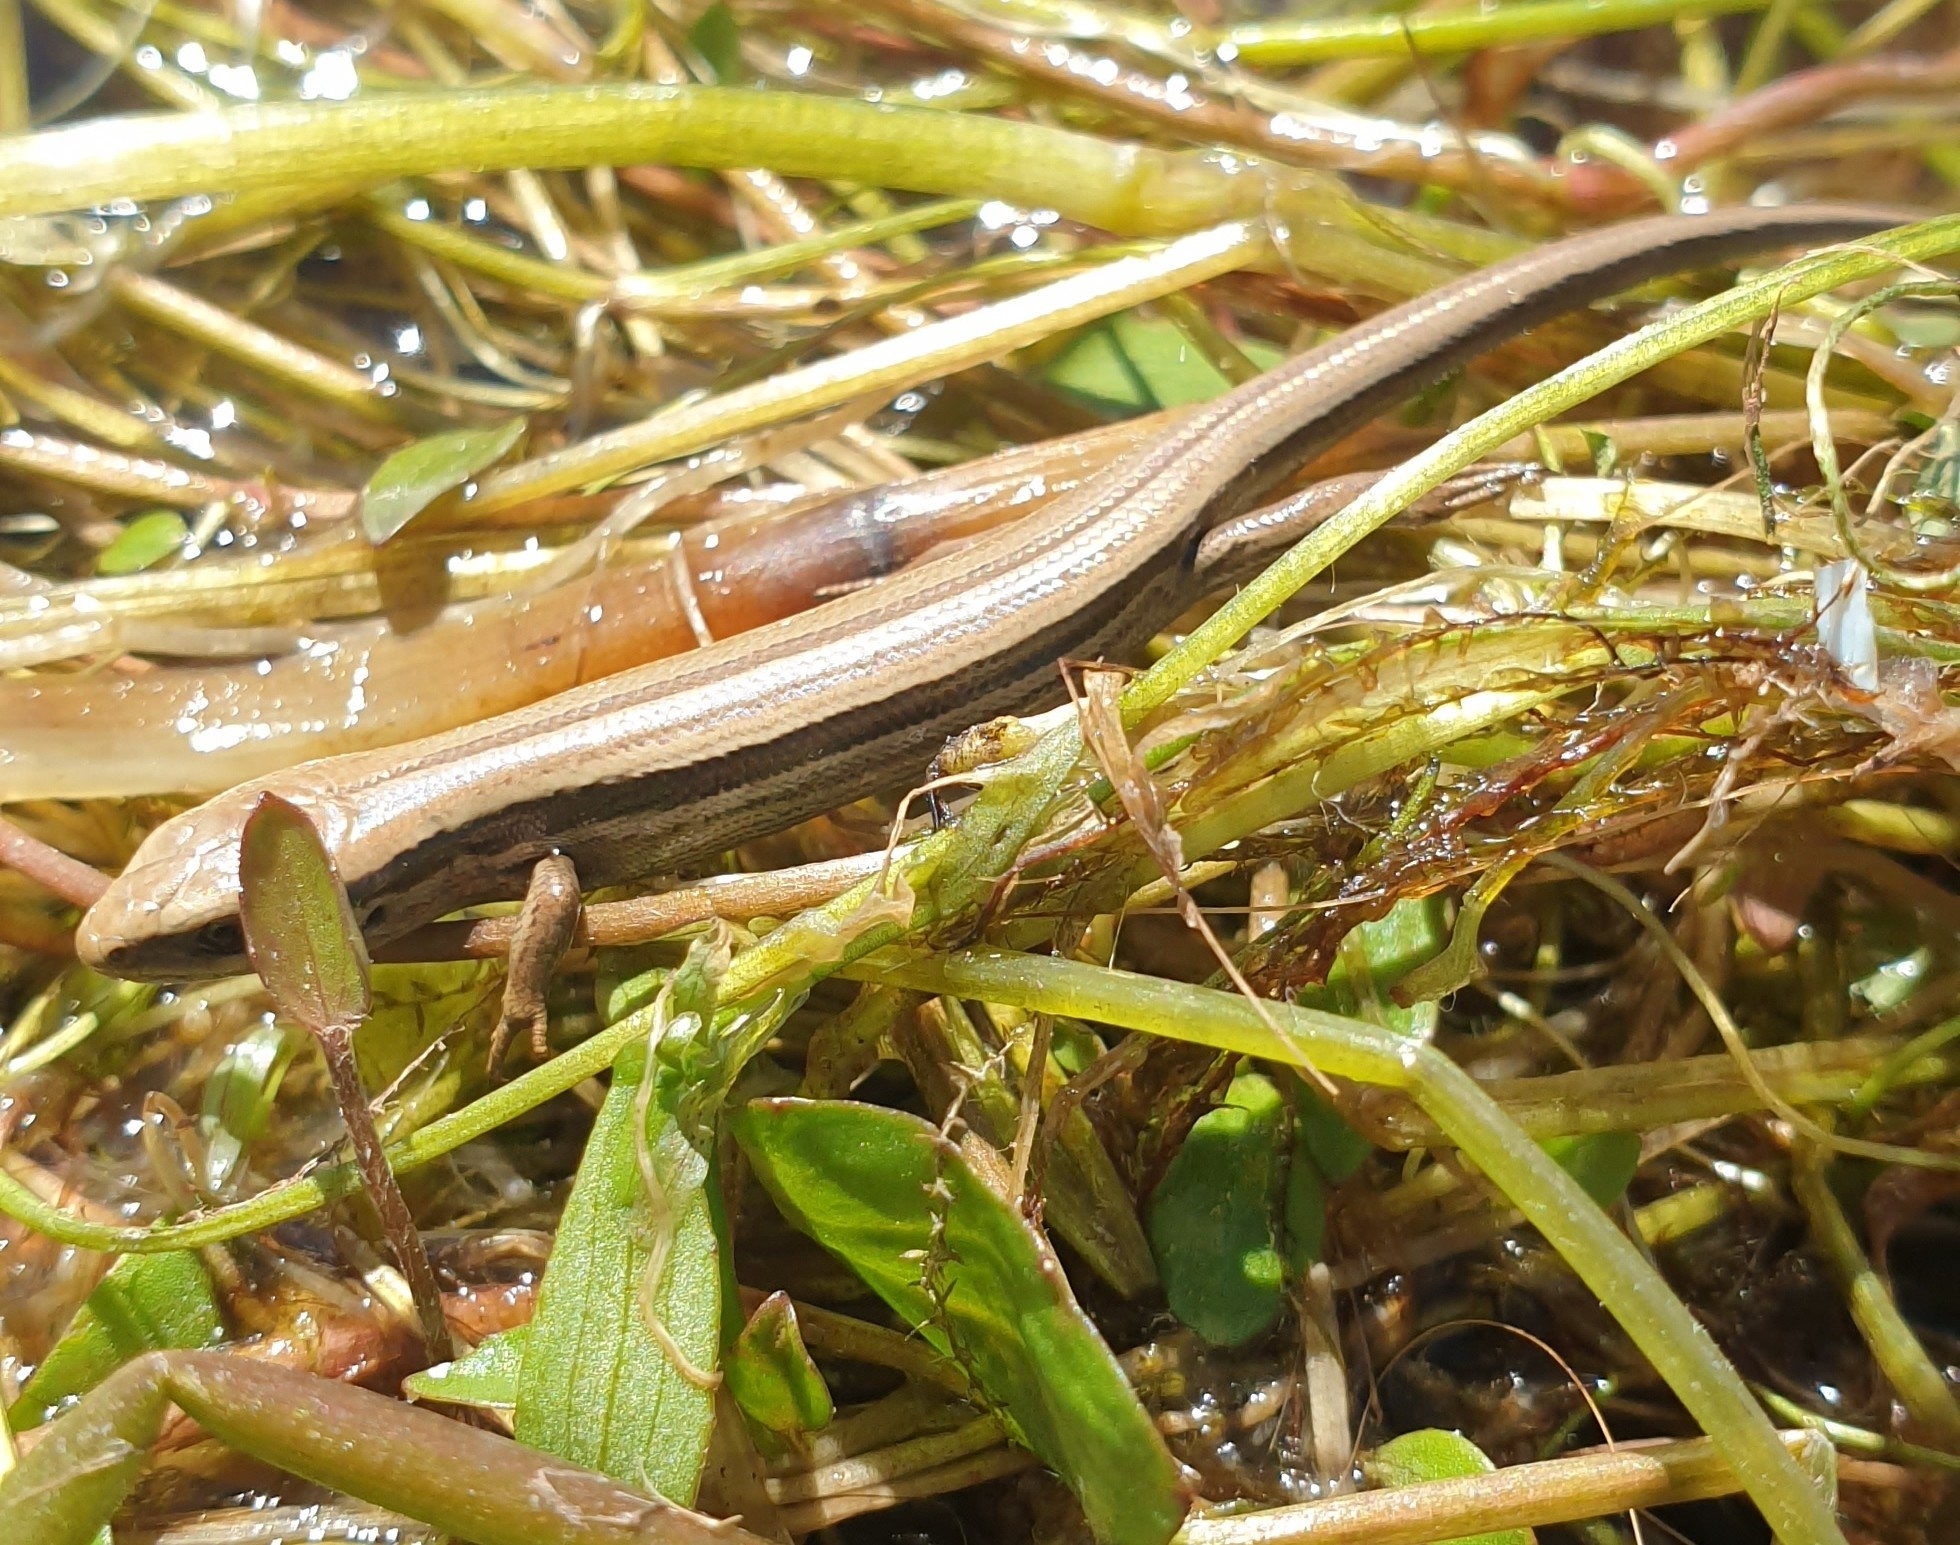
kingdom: Animalia
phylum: Chordata
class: Squamata
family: Scincidae
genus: Oligosoma
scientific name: Oligosoma polychroma
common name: Common new zealand skink
